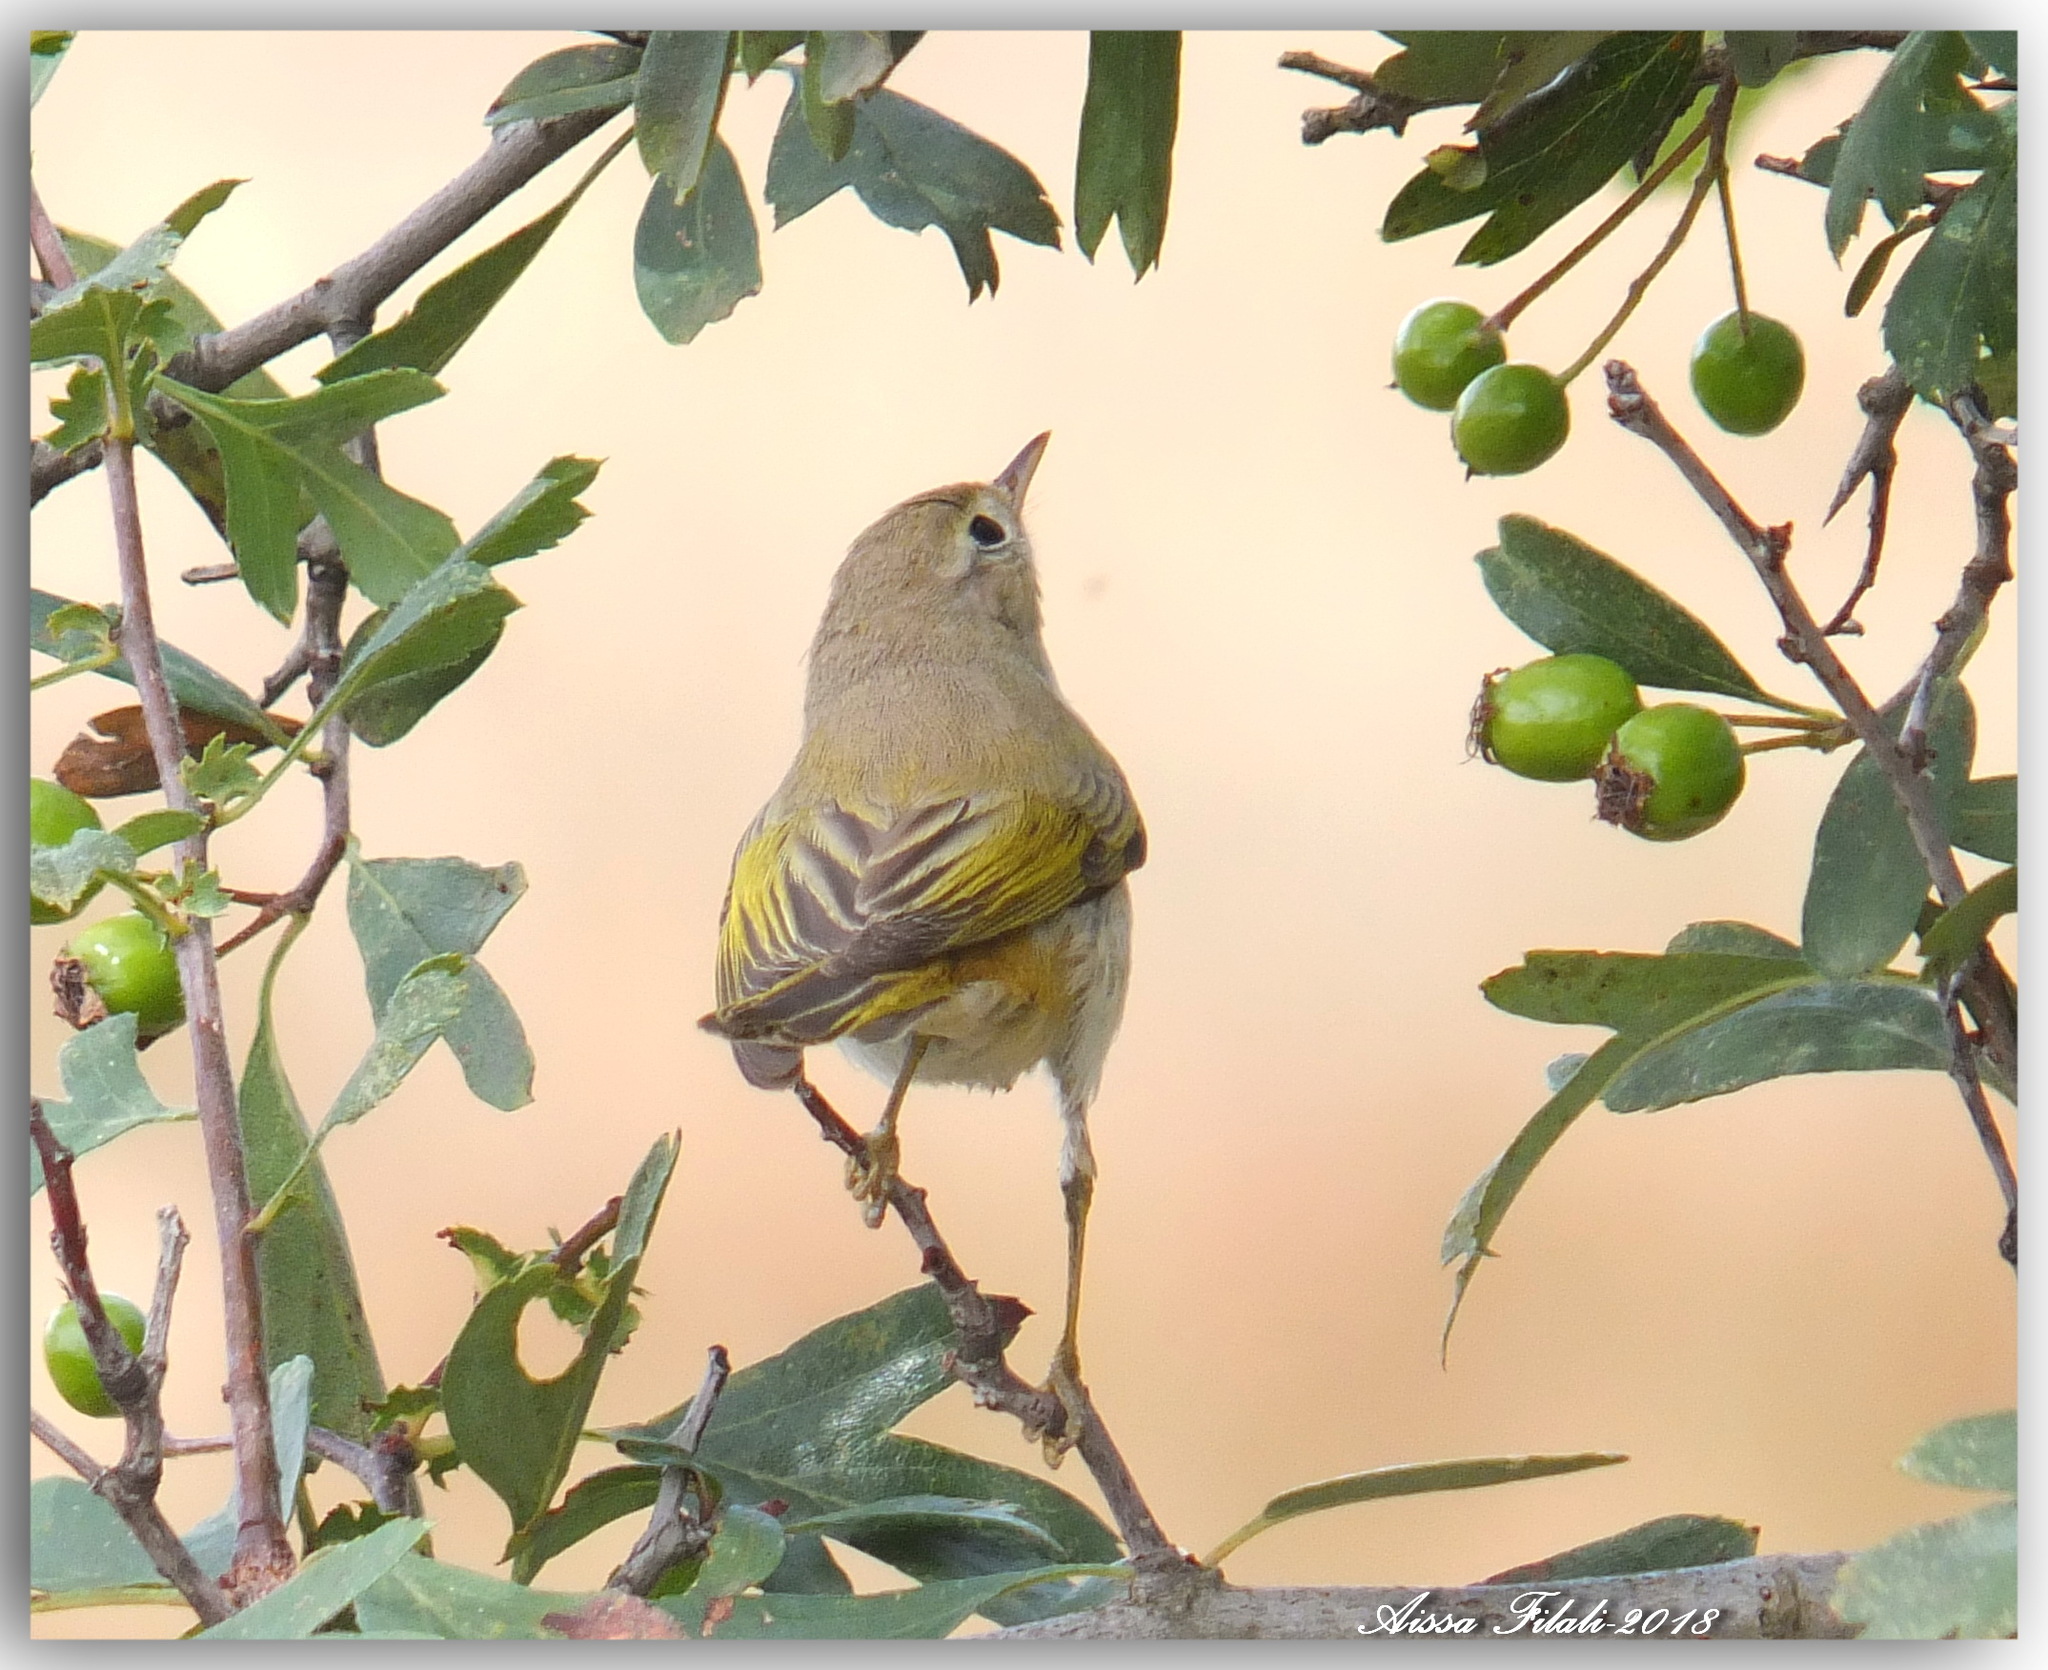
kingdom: Animalia
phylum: Chordata
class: Aves
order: Passeriformes
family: Phylloscopidae
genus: Phylloscopus
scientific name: Phylloscopus bonelli
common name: Western bonelli's warbler
